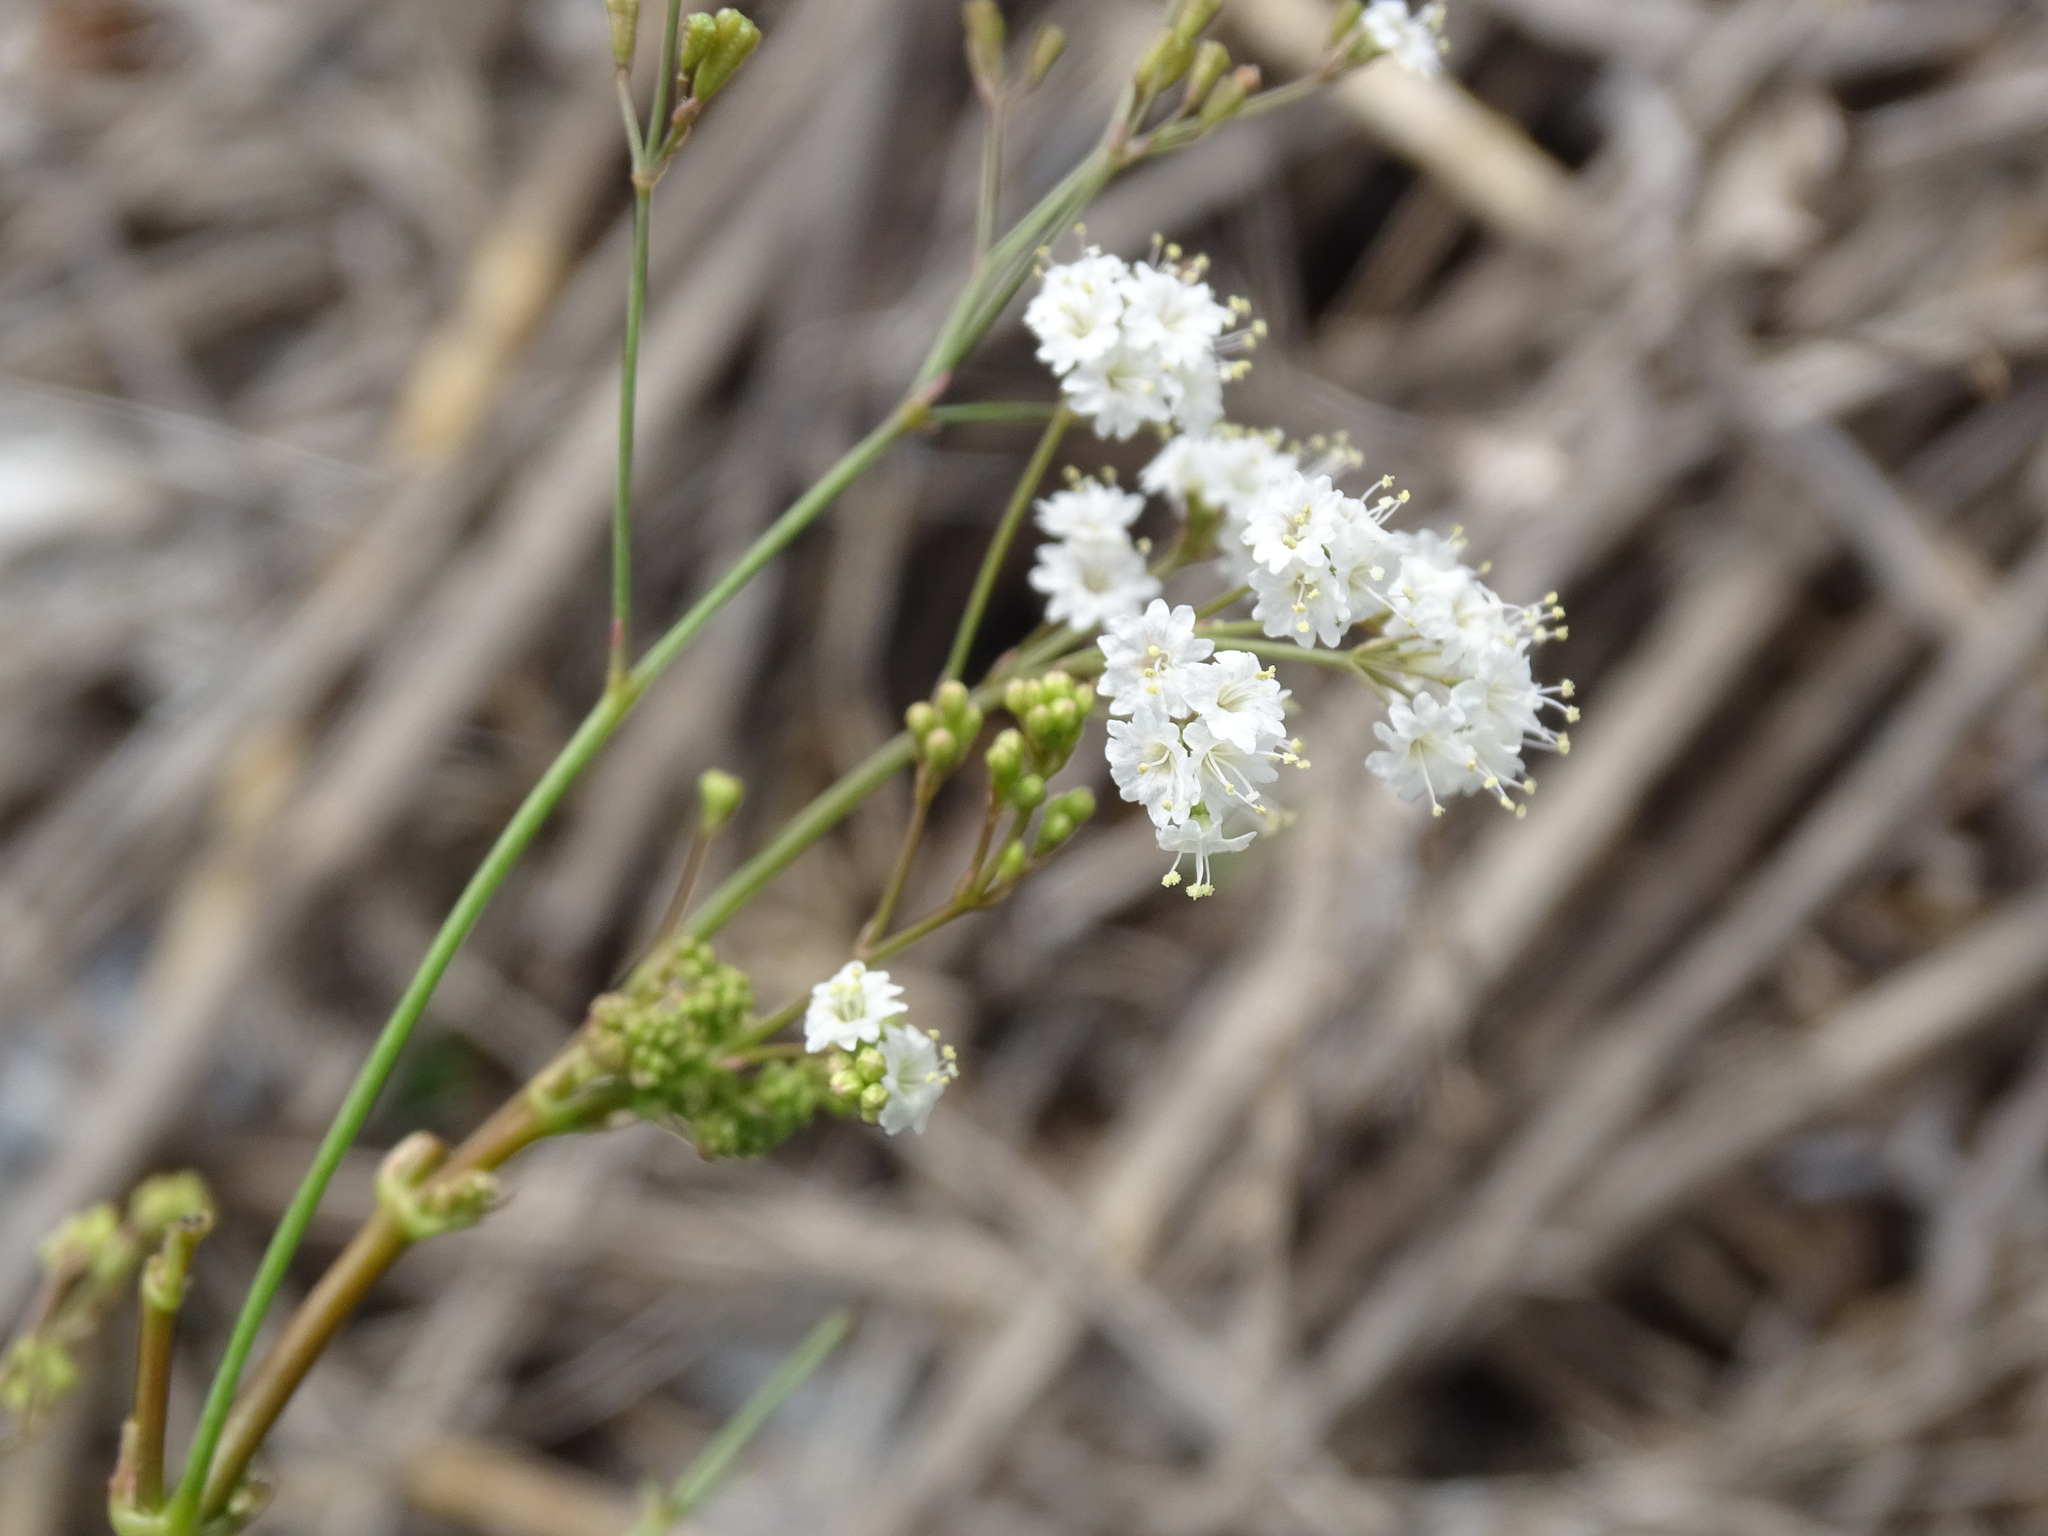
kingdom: Plantae
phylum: Tracheophyta
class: Magnoliopsida
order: Caryophyllales
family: Nyctaginaceae
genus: Boerhavia
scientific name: Boerhavia erecta
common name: Erect spiderling
